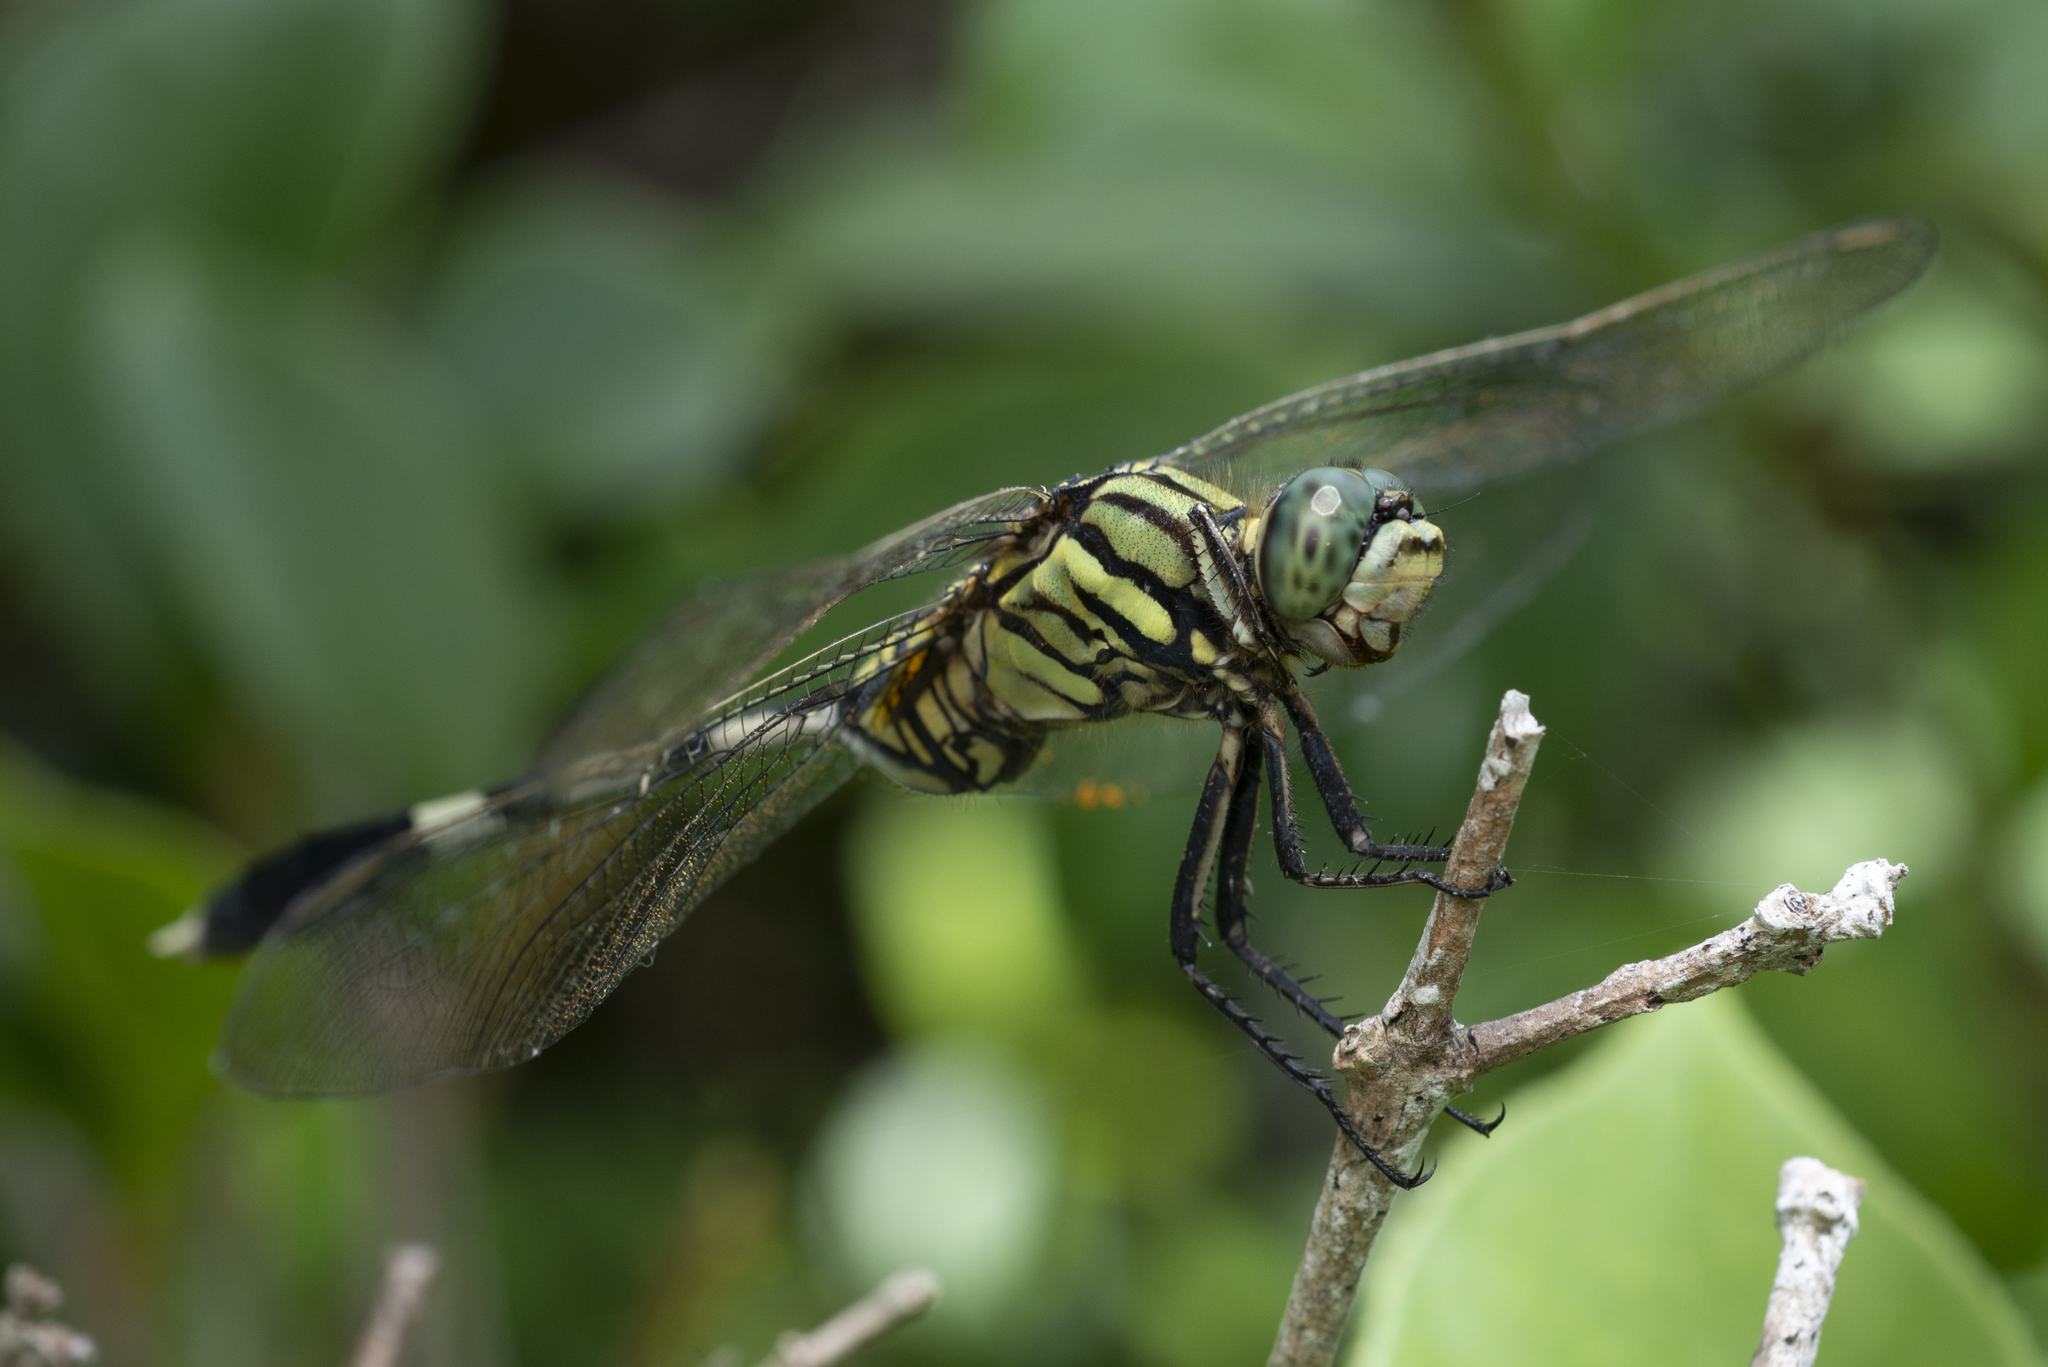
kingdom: Animalia
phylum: Arthropoda
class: Insecta
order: Odonata
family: Libellulidae
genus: Orthetrum
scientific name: Orthetrum sabina
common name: Slender skimmer
